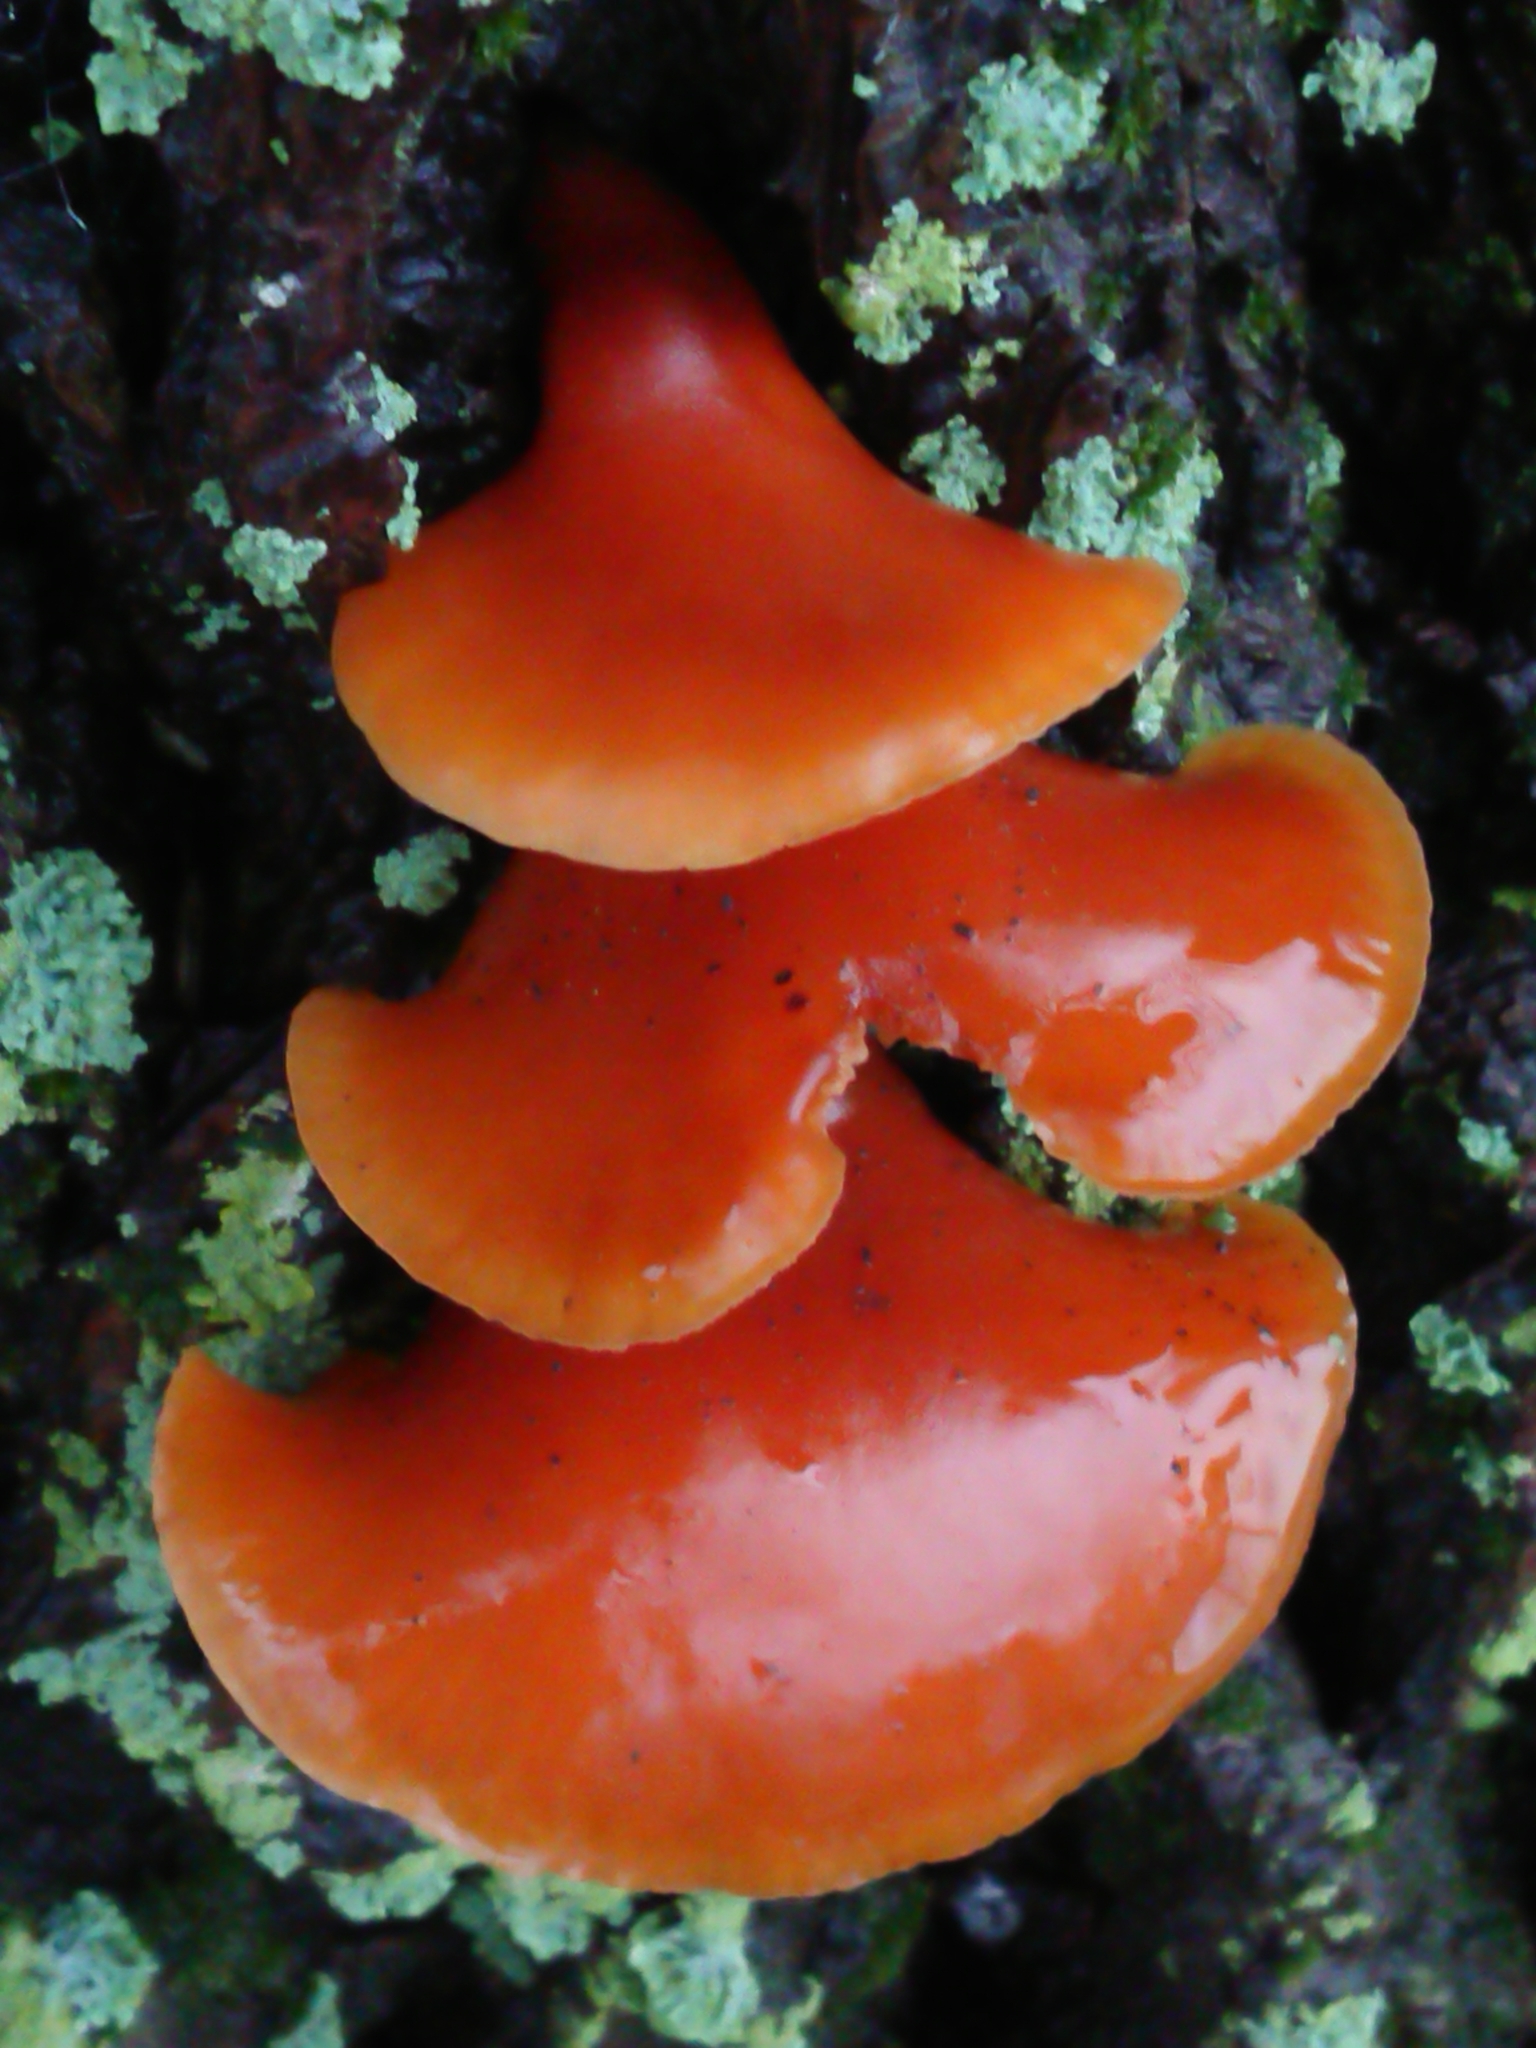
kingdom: Fungi
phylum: Basidiomycota
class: Agaricomycetes
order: Agaricales
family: Physalacriaceae
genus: Flammulina
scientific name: Flammulina velutipes
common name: Velvet shank
